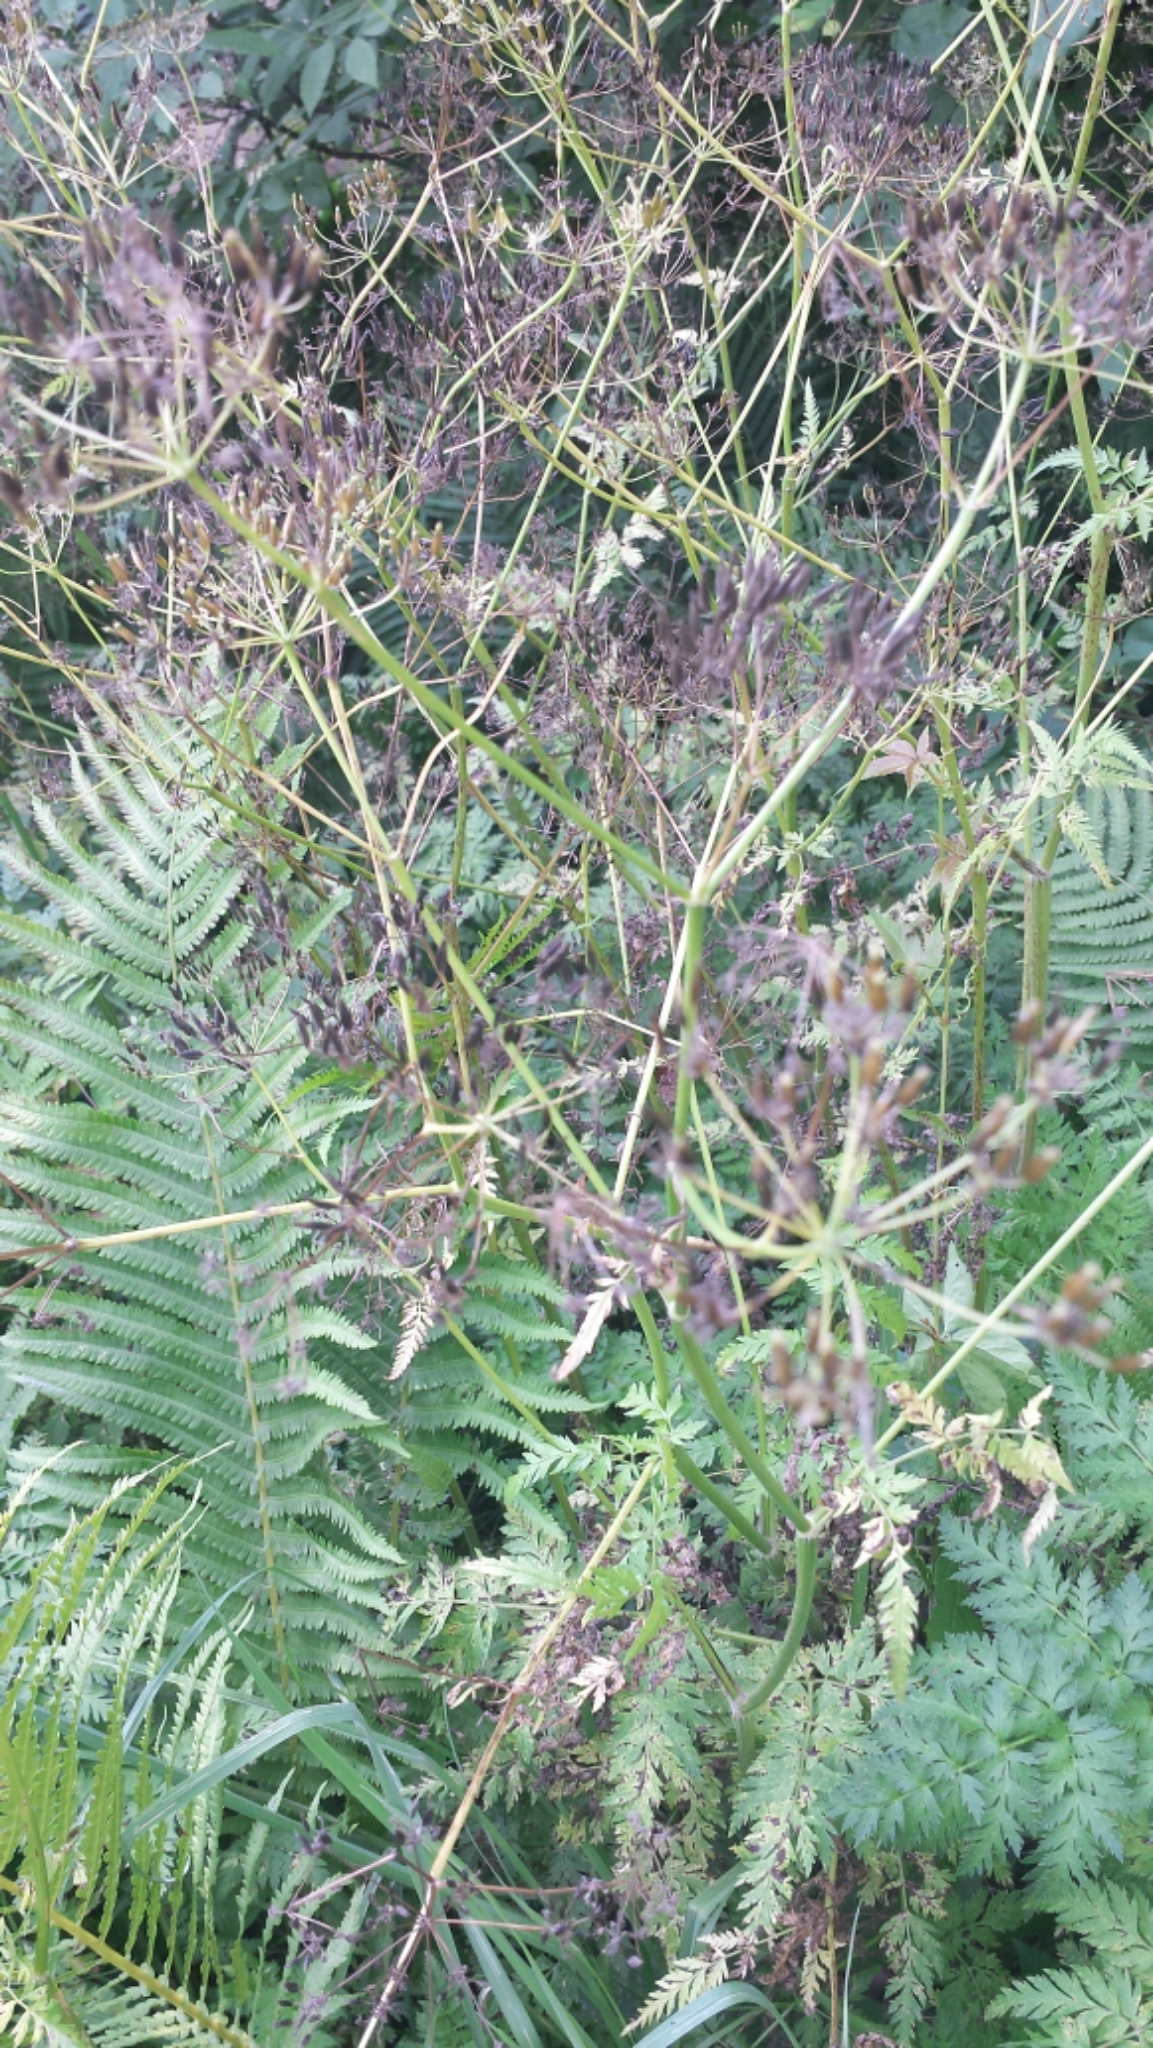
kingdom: Plantae
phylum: Tracheophyta
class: Magnoliopsida
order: Apiales
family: Apiaceae
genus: Anthriscus
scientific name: Anthriscus sylvestris
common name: Cow parsley
